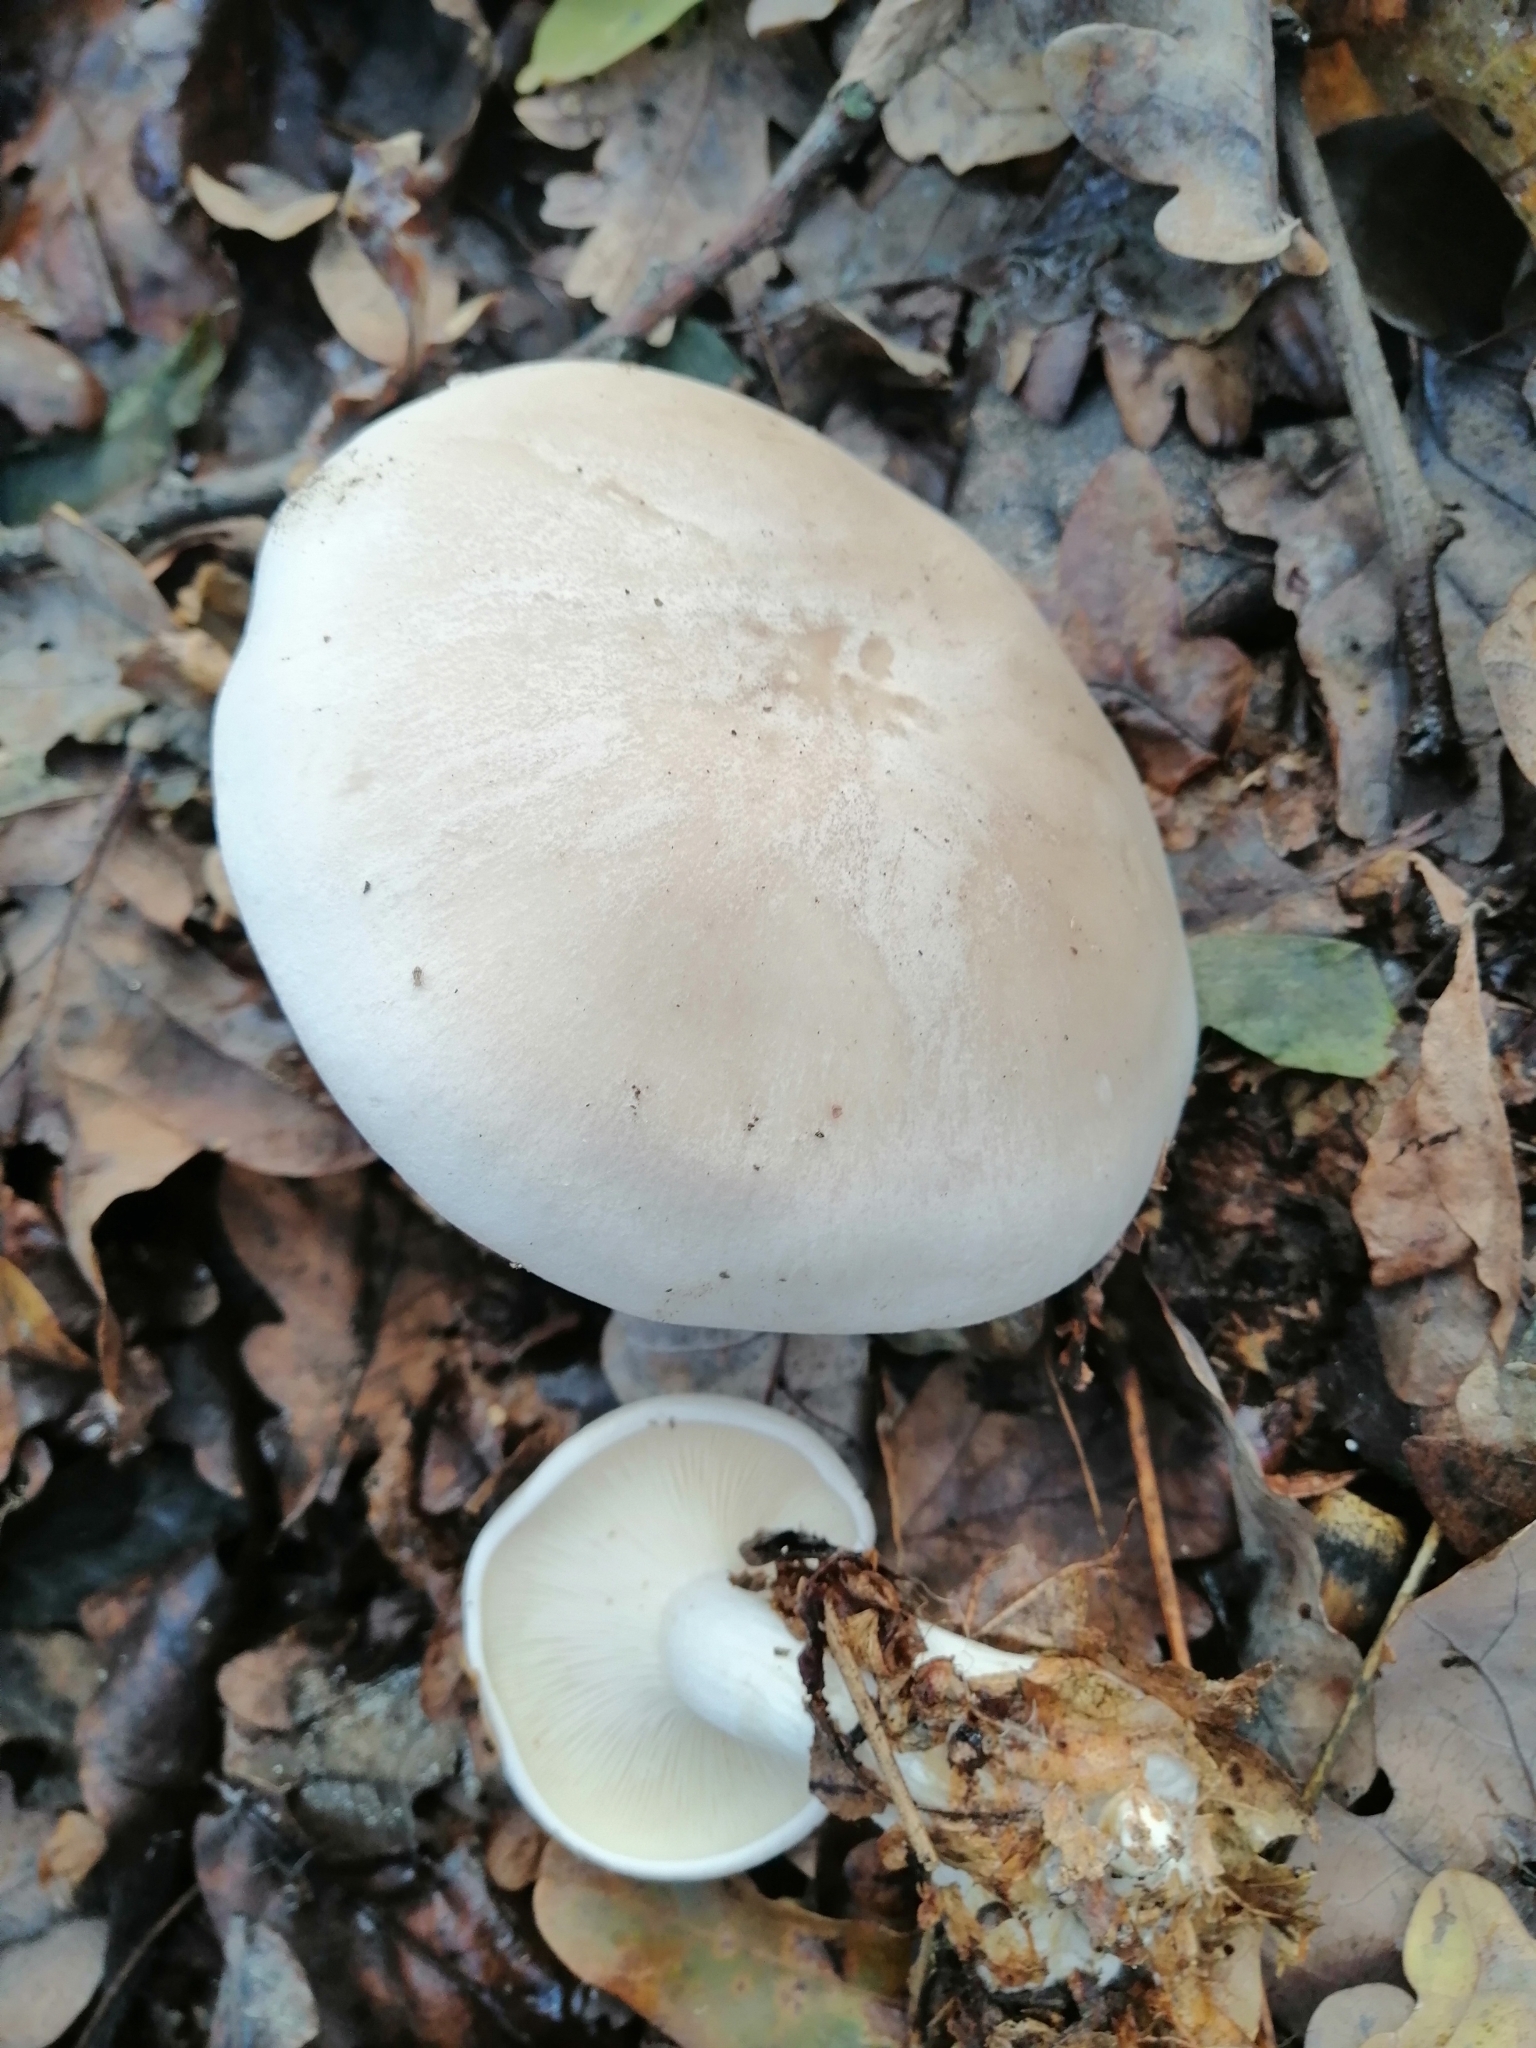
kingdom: Fungi
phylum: Basidiomycota
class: Agaricomycetes
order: Agaricales
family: Tricholomataceae
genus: Clitocybe
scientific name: Clitocybe nebularis
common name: Clouded agaric
